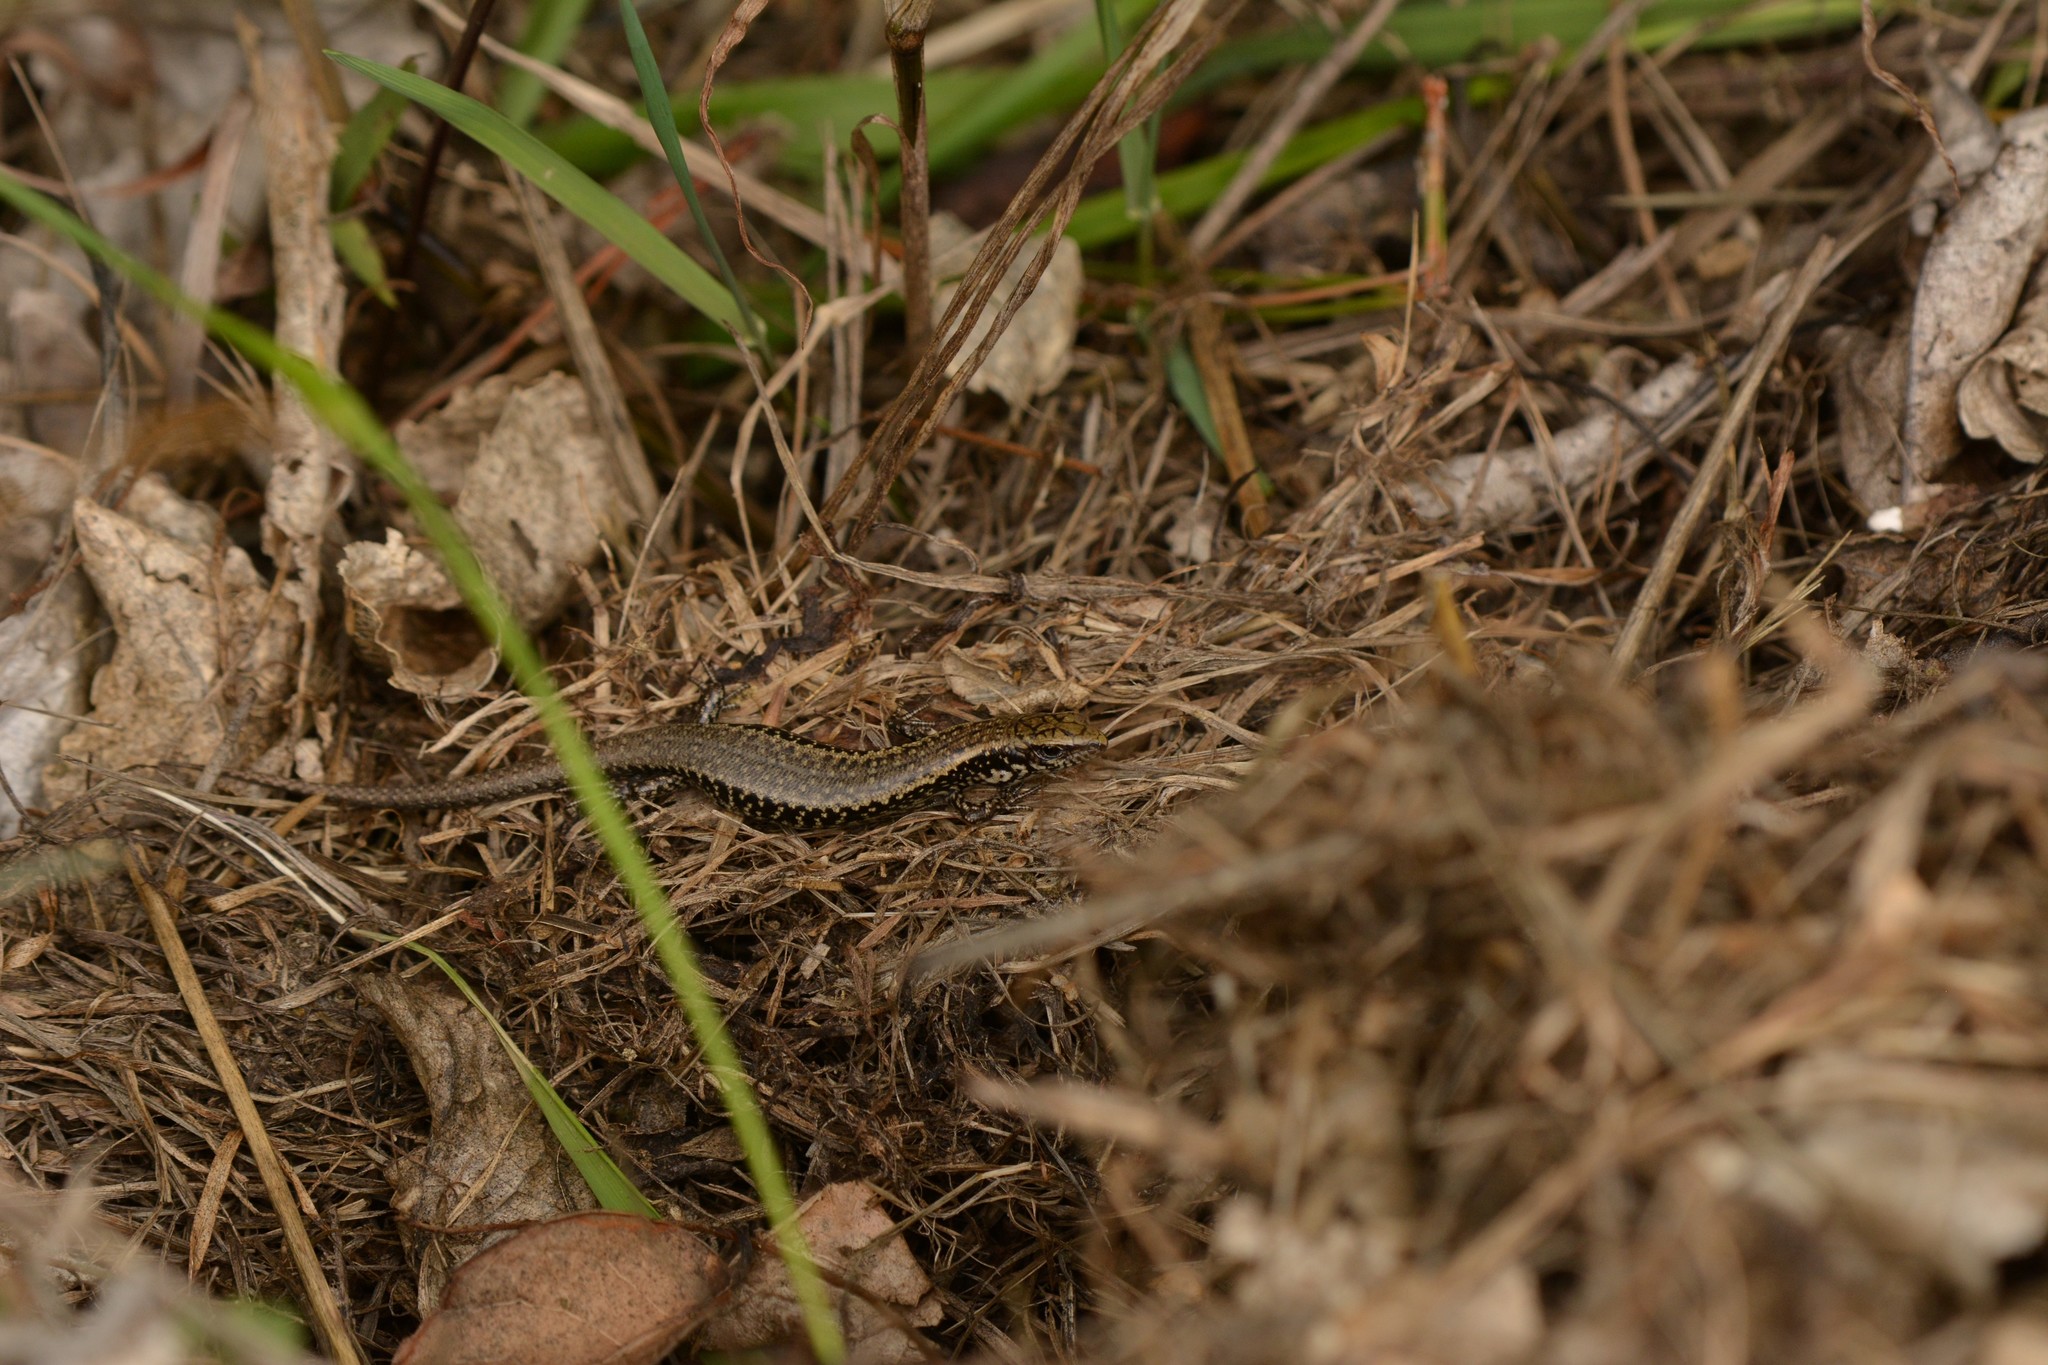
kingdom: Animalia
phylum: Chordata
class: Squamata
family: Scincidae
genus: Oligosoma
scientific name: Oligosoma kokowai
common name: Northern spotted skink
